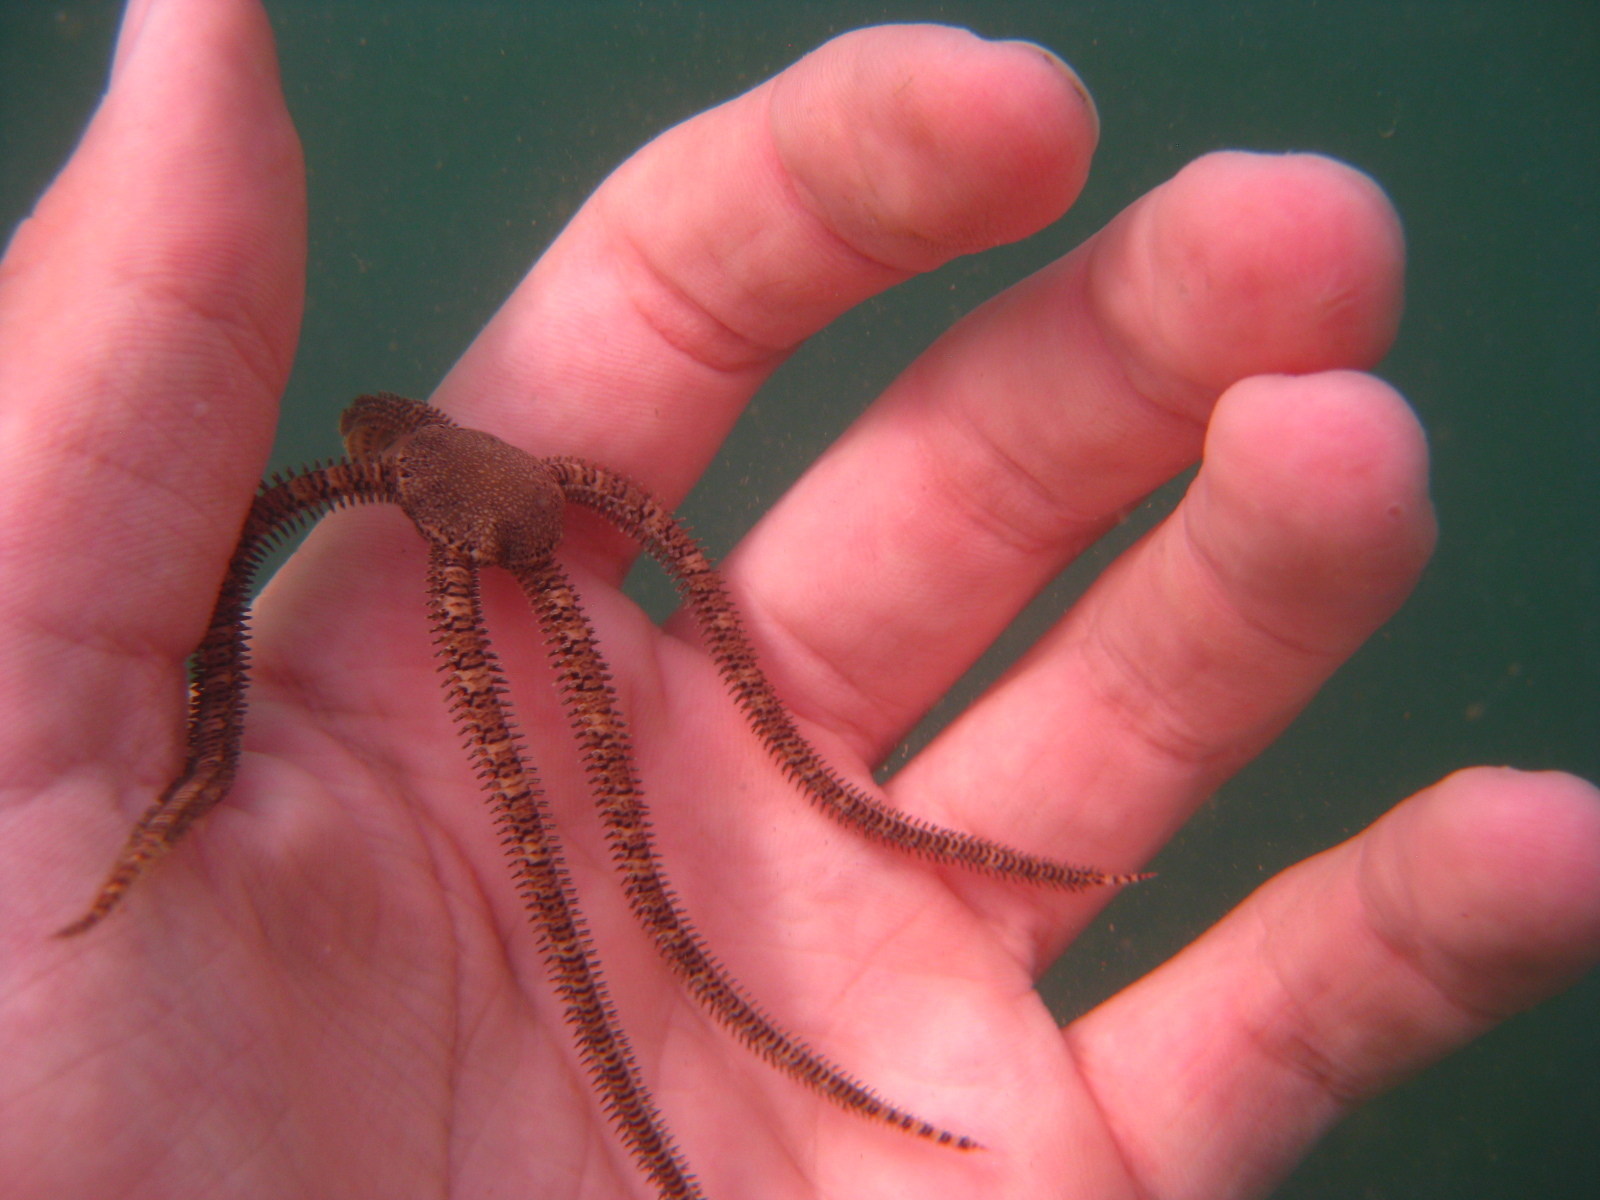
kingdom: Animalia
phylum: Echinodermata
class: Ophiuroidea
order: Amphilepidida
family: Ophionereididae
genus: Ophionereis
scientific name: Ophionereis fasciata
